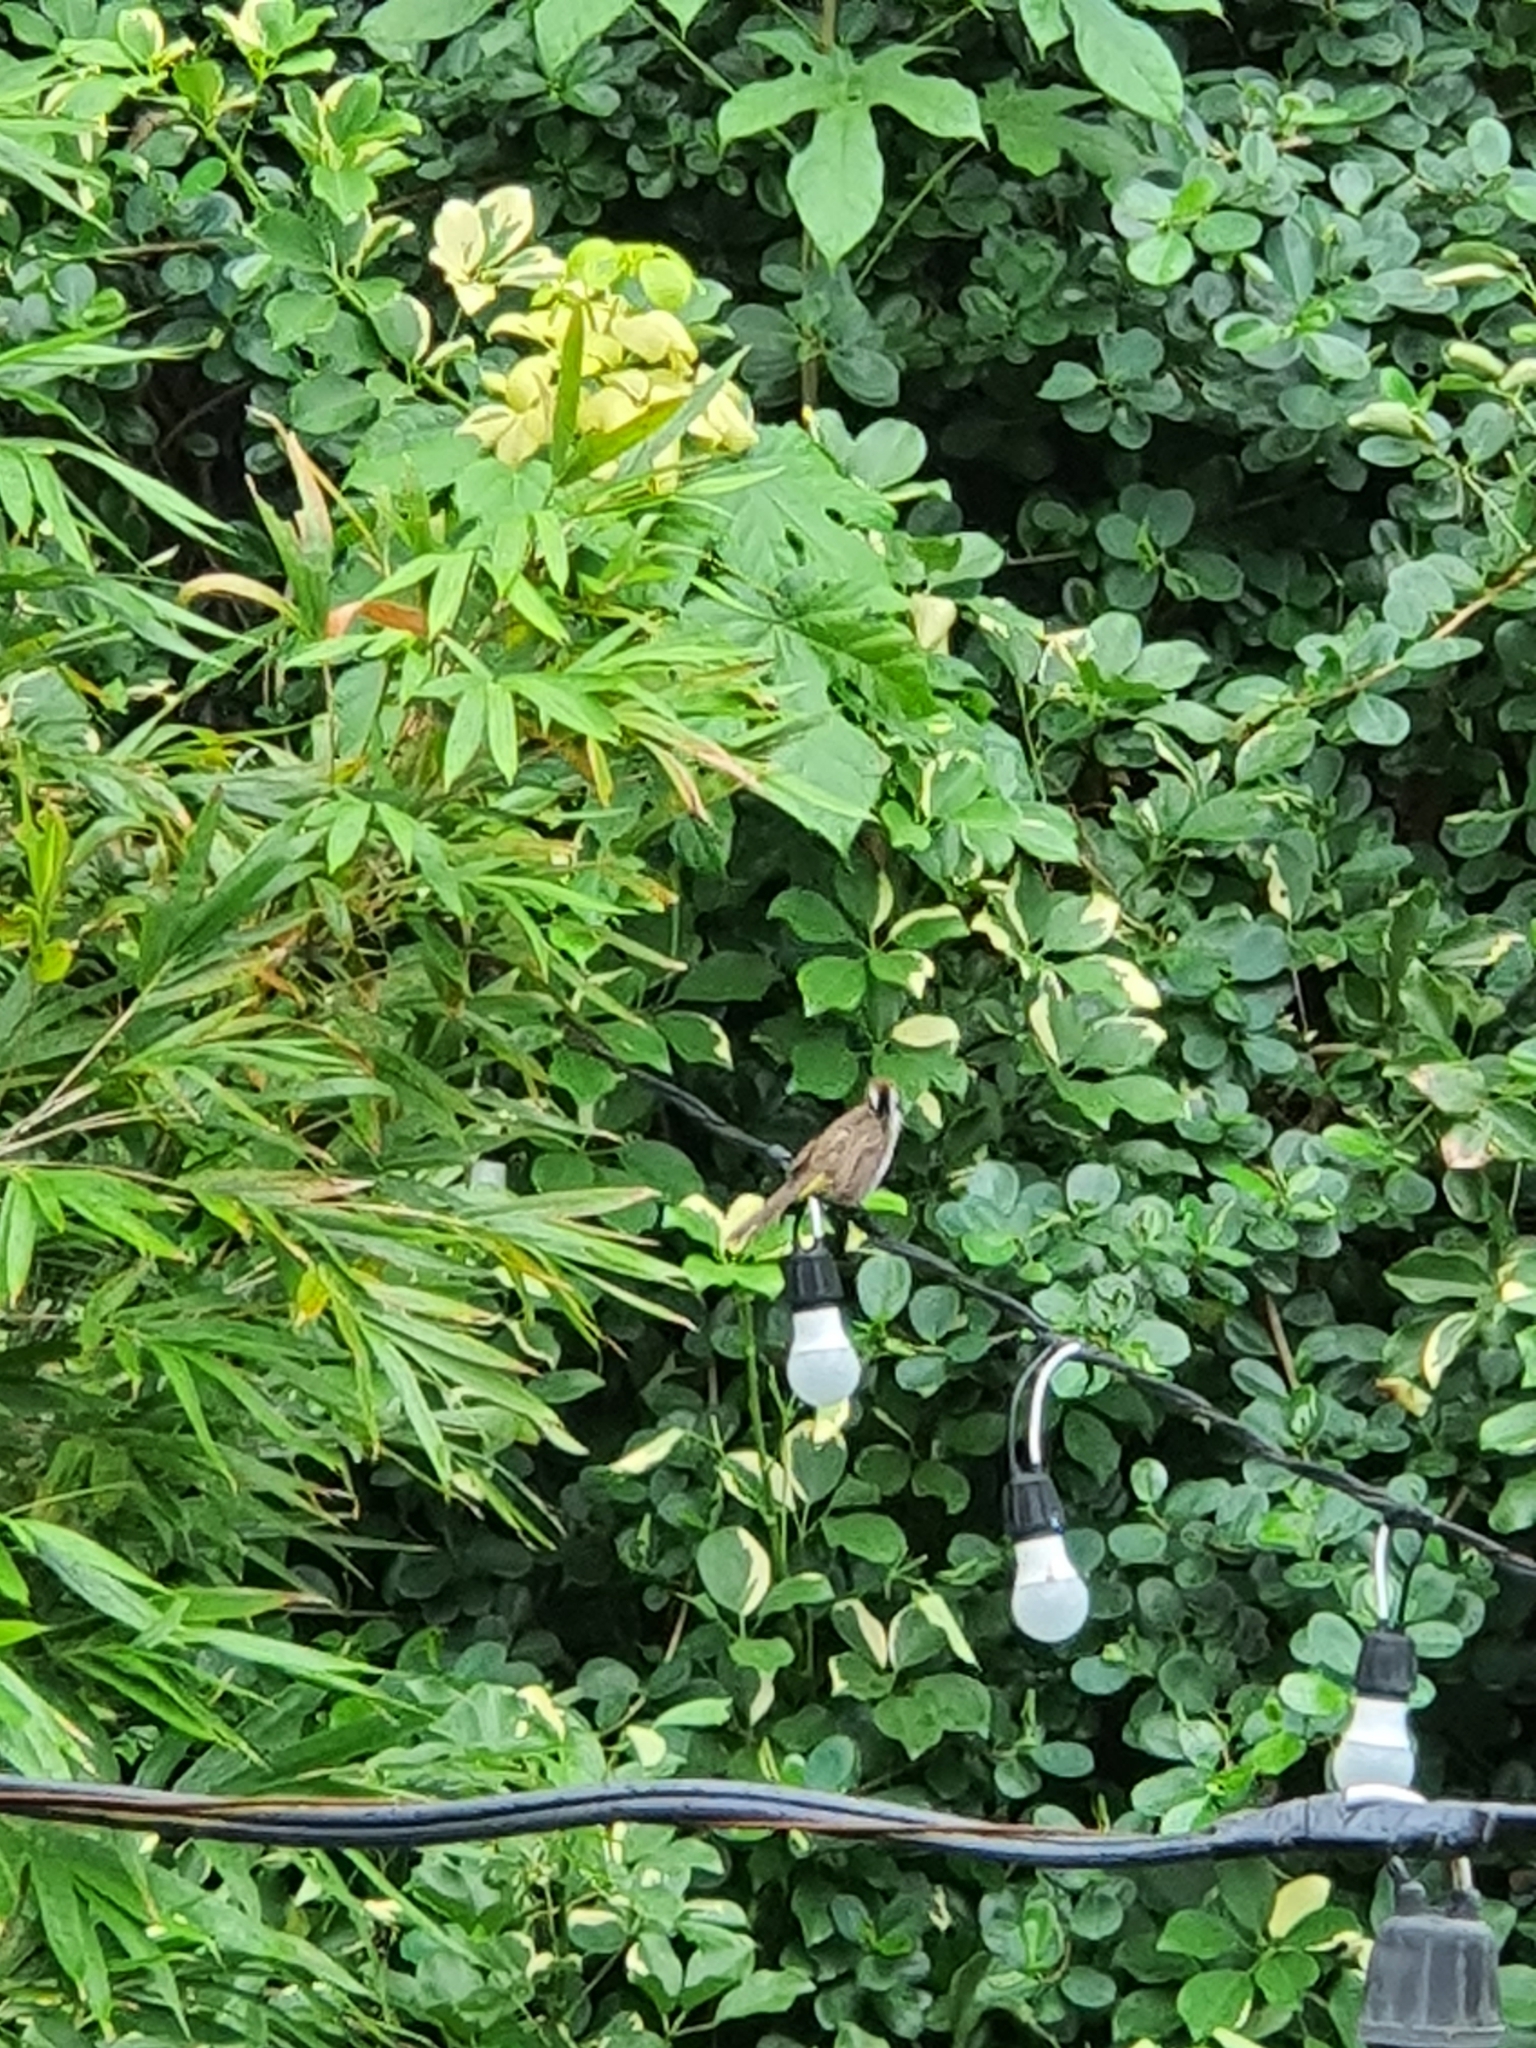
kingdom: Animalia
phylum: Chordata
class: Aves
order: Passeriformes
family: Pycnonotidae
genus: Pycnonotus
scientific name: Pycnonotus goiavier
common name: Yellow-vented bulbul
